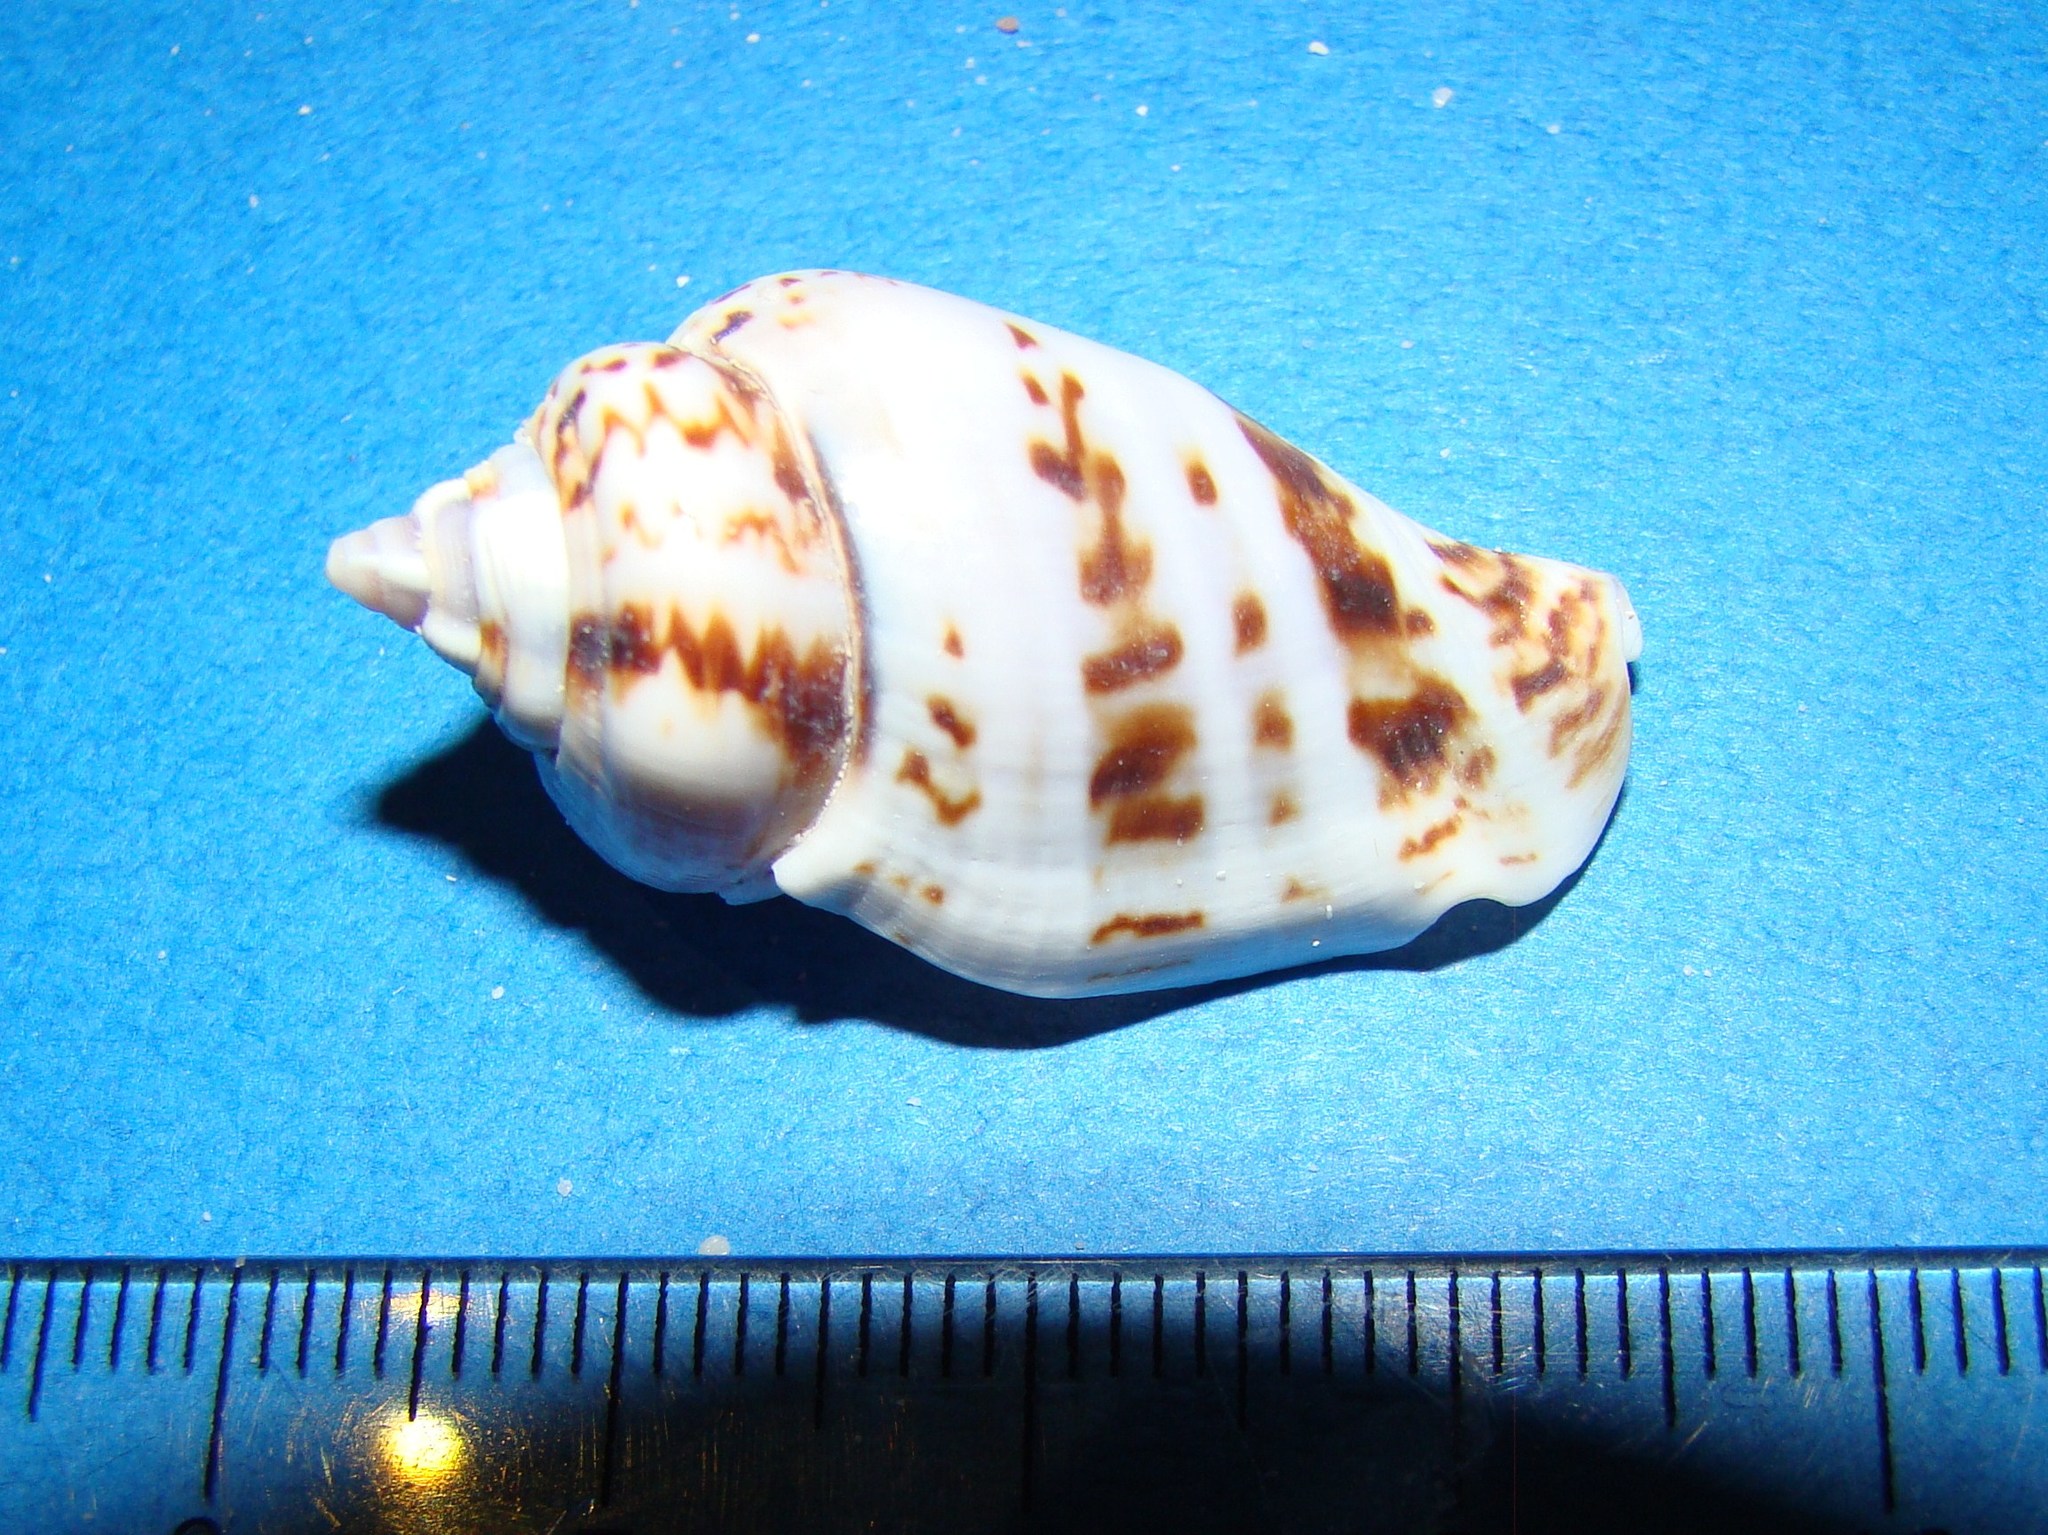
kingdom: Animalia
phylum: Mollusca
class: Gastropoda
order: Littorinimorpha
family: Strombidae
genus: Gibberulus
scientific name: Gibberulus gibberulus
